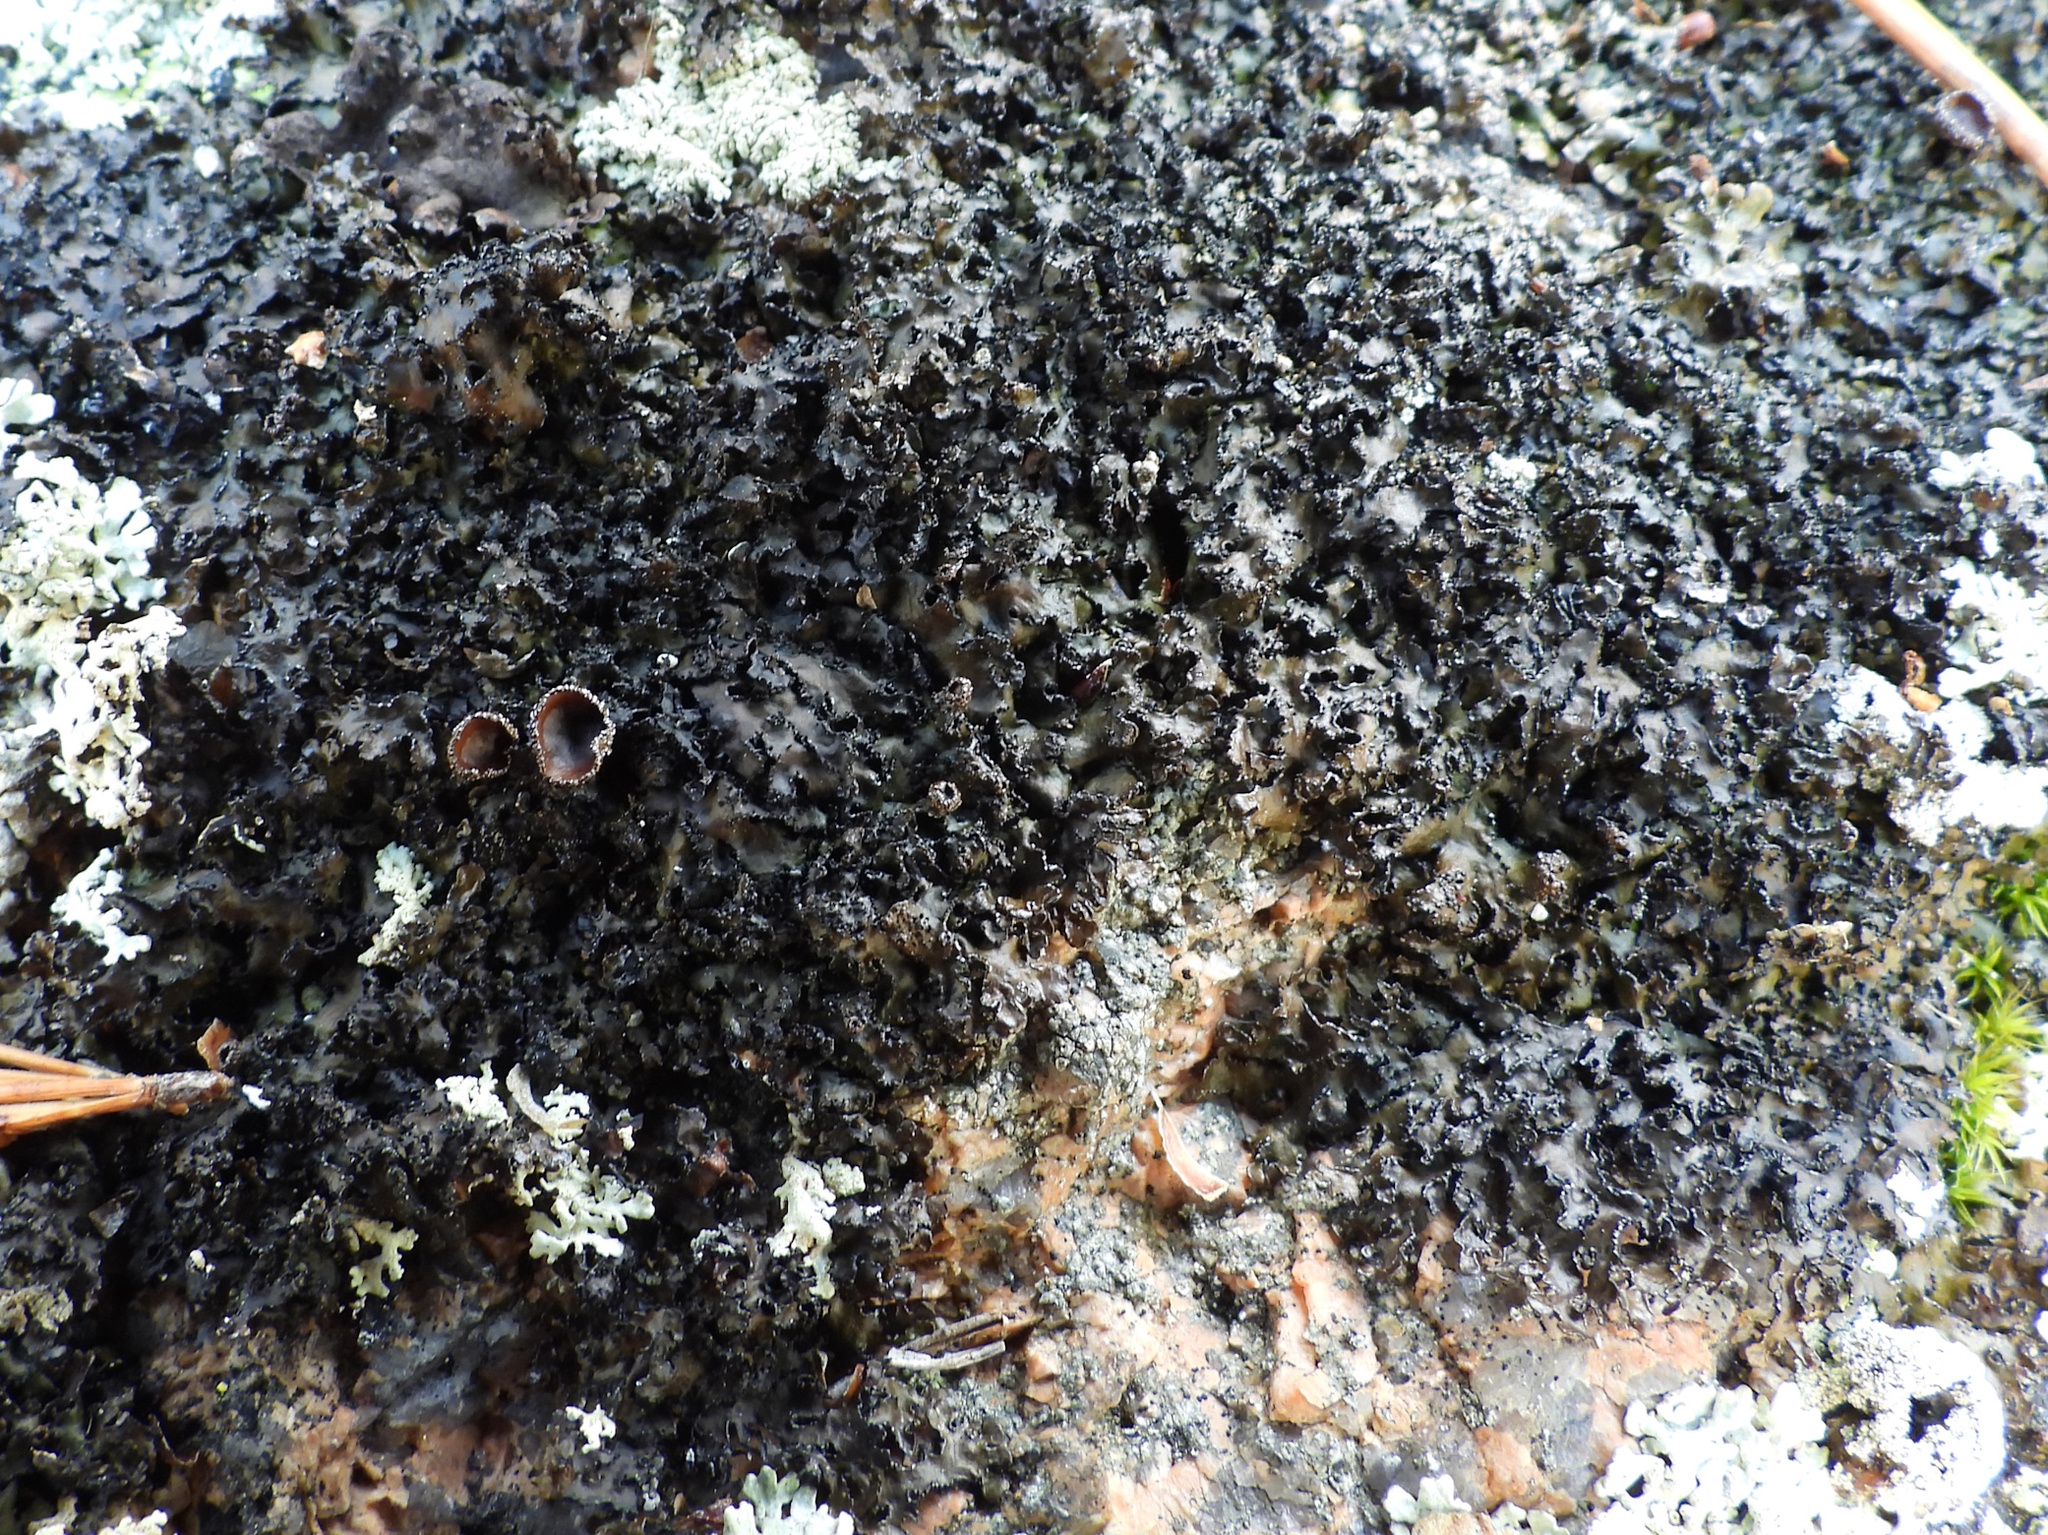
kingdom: Fungi
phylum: Ascomycota
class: Lecanoromycetes
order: Lecanorales
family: Parmeliaceae
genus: Melanelia
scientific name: Melanelia hepatizon
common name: Rimmed camouflage lichen
